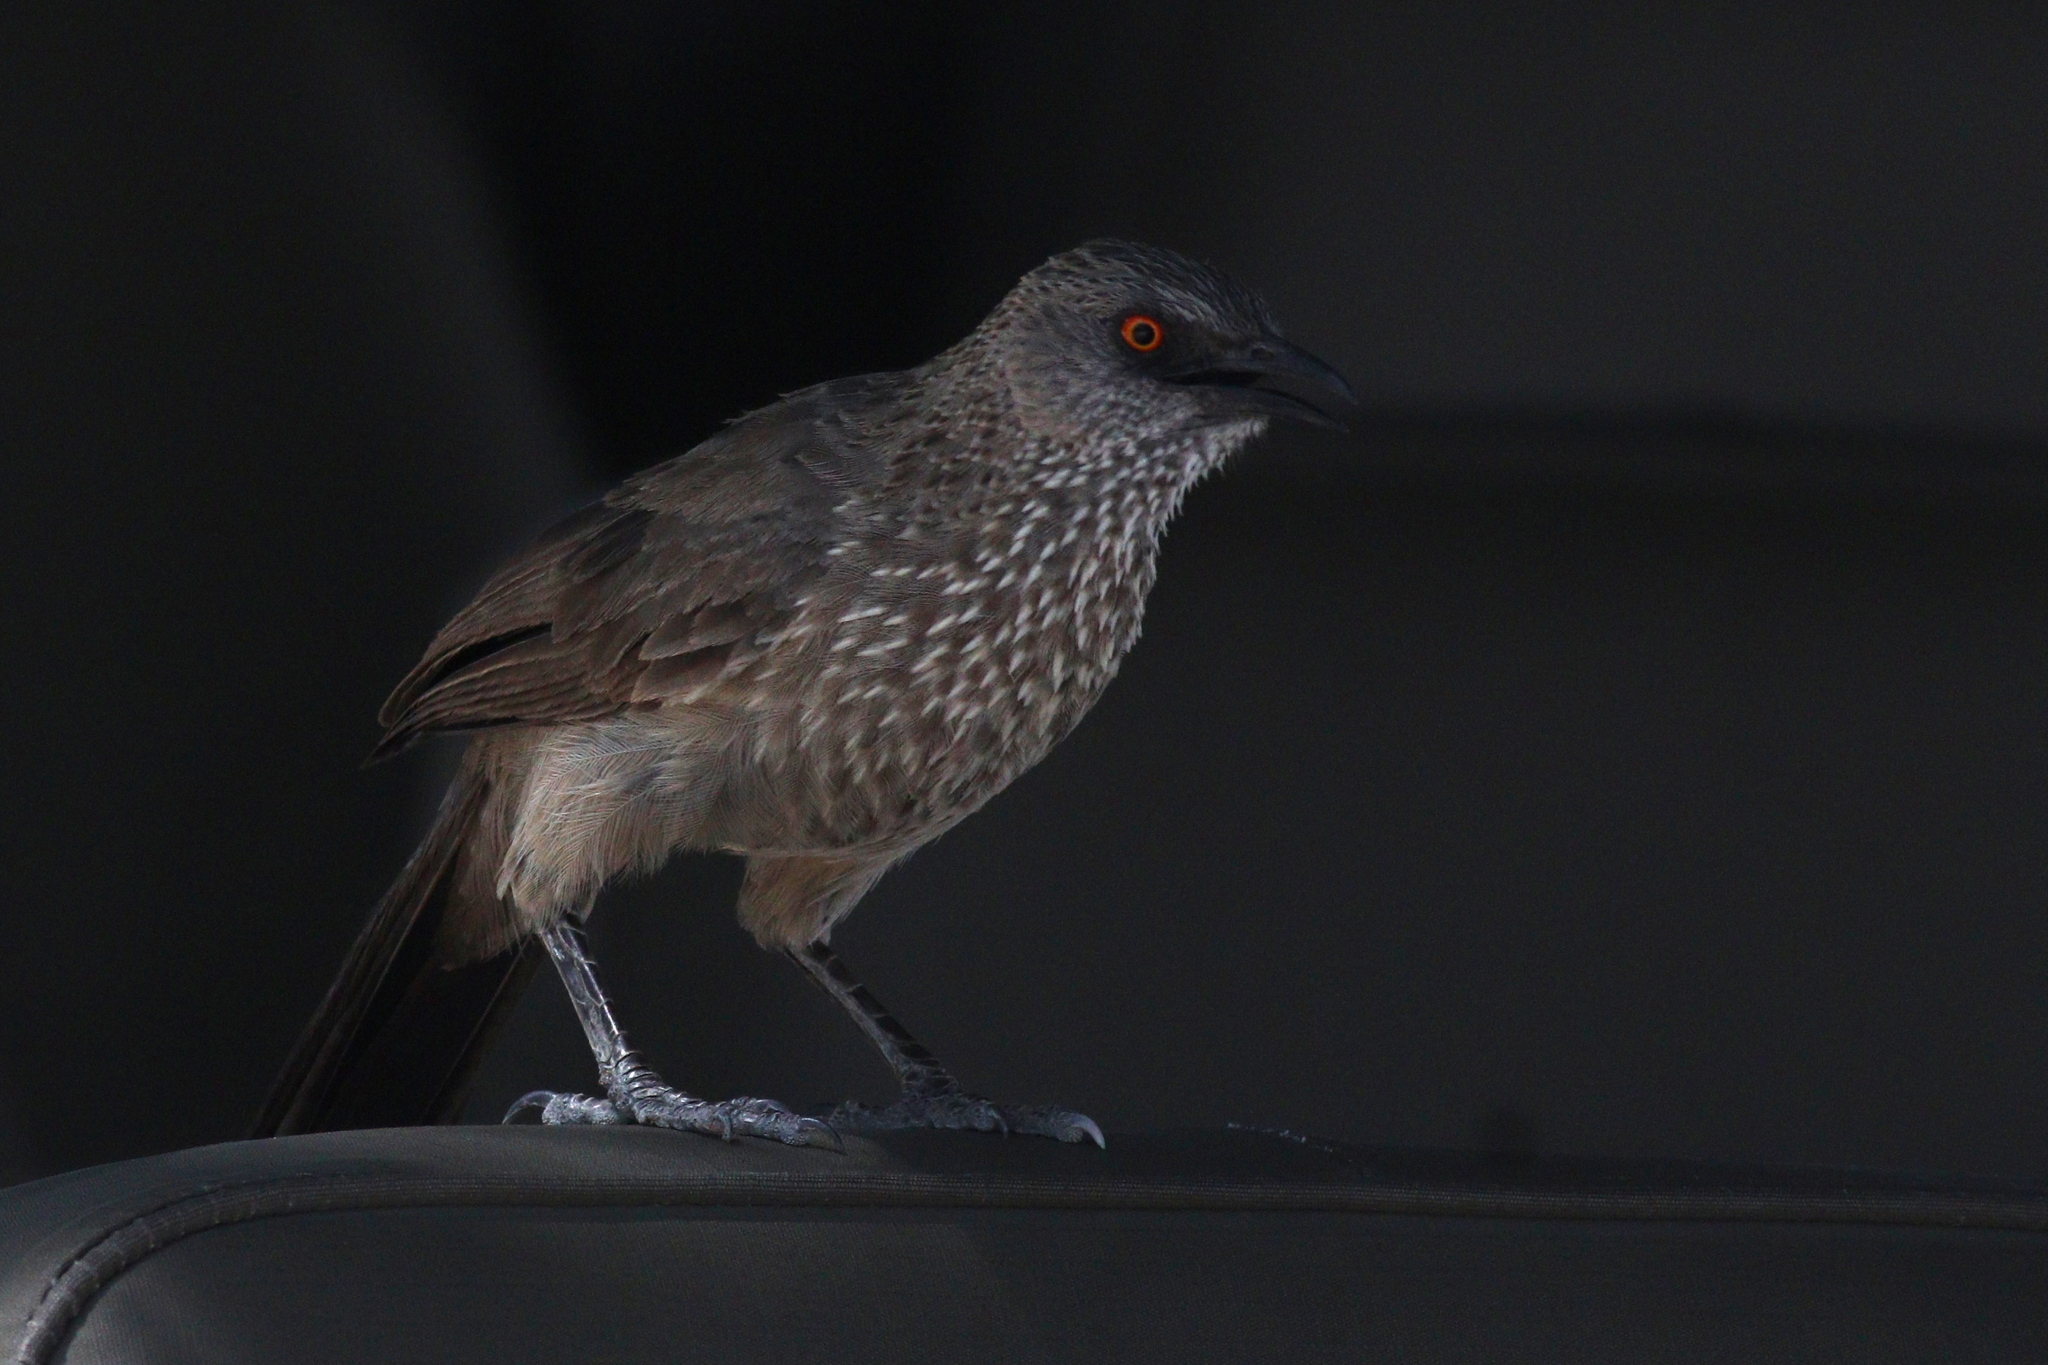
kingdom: Animalia
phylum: Chordata
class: Aves
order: Passeriformes
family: Leiothrichidae
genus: Turdoides
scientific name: Turdoides jardineii
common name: Arrow-marked babbler
